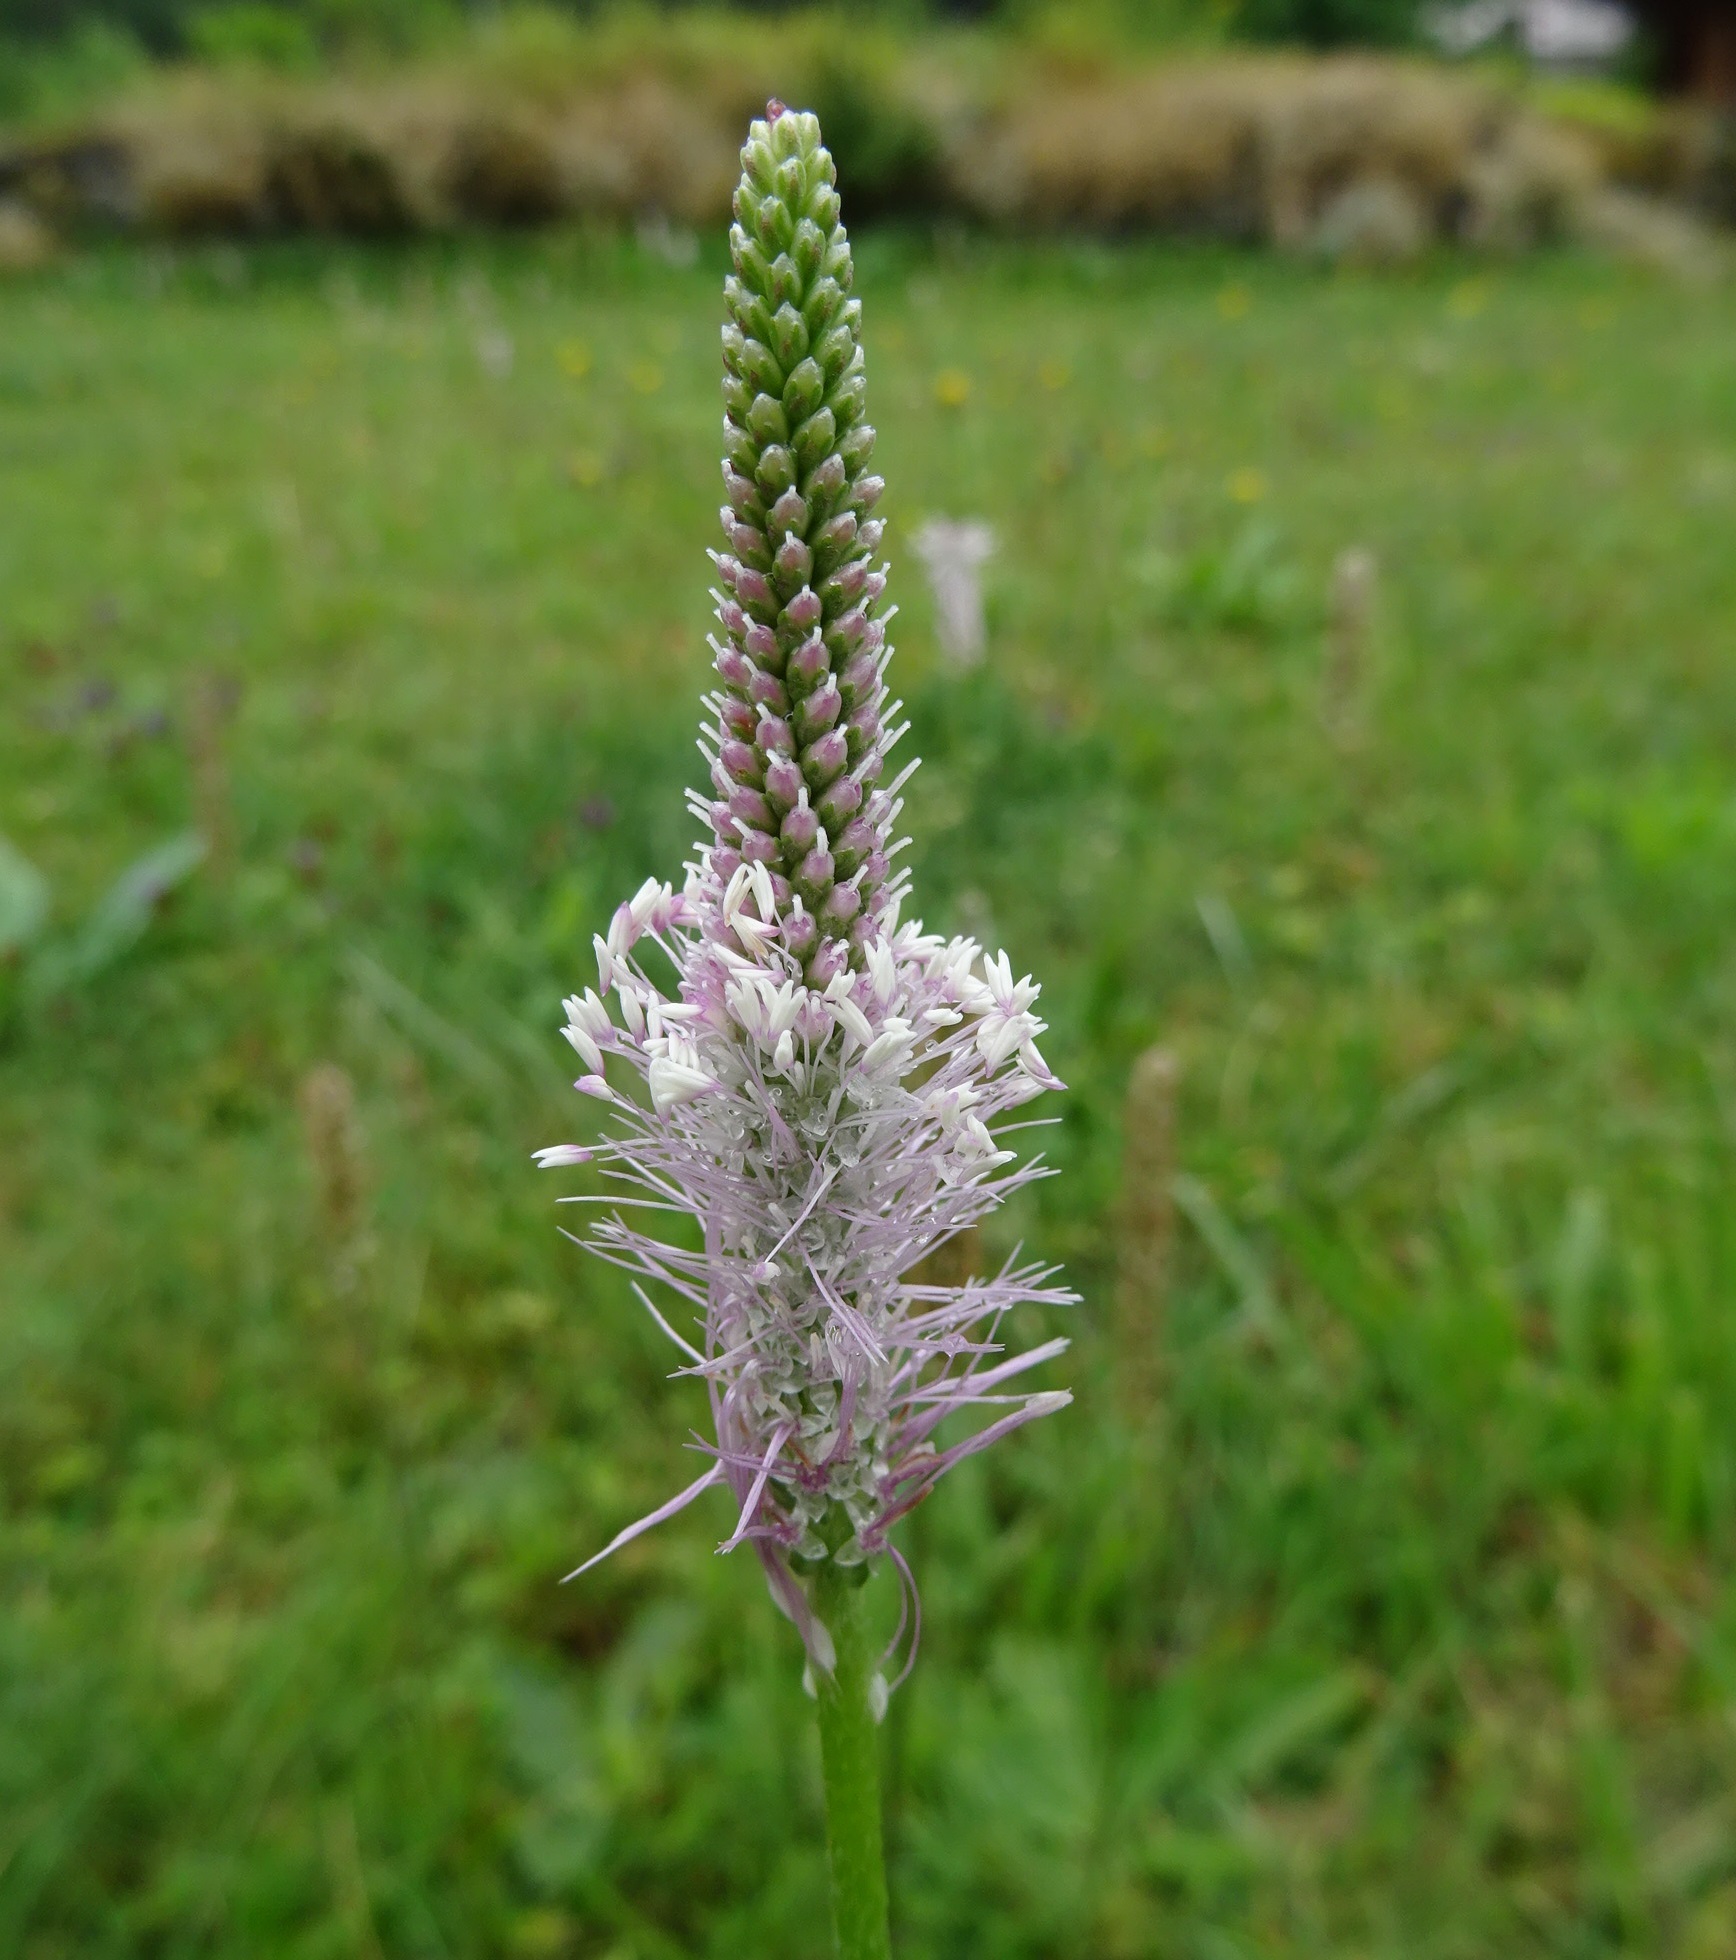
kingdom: Plantae
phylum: Tracheophyta
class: Magnoliopsida
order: Lamiales
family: Plantaginaceae
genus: Plantago
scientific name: Plantago media
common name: Hoary plantain
